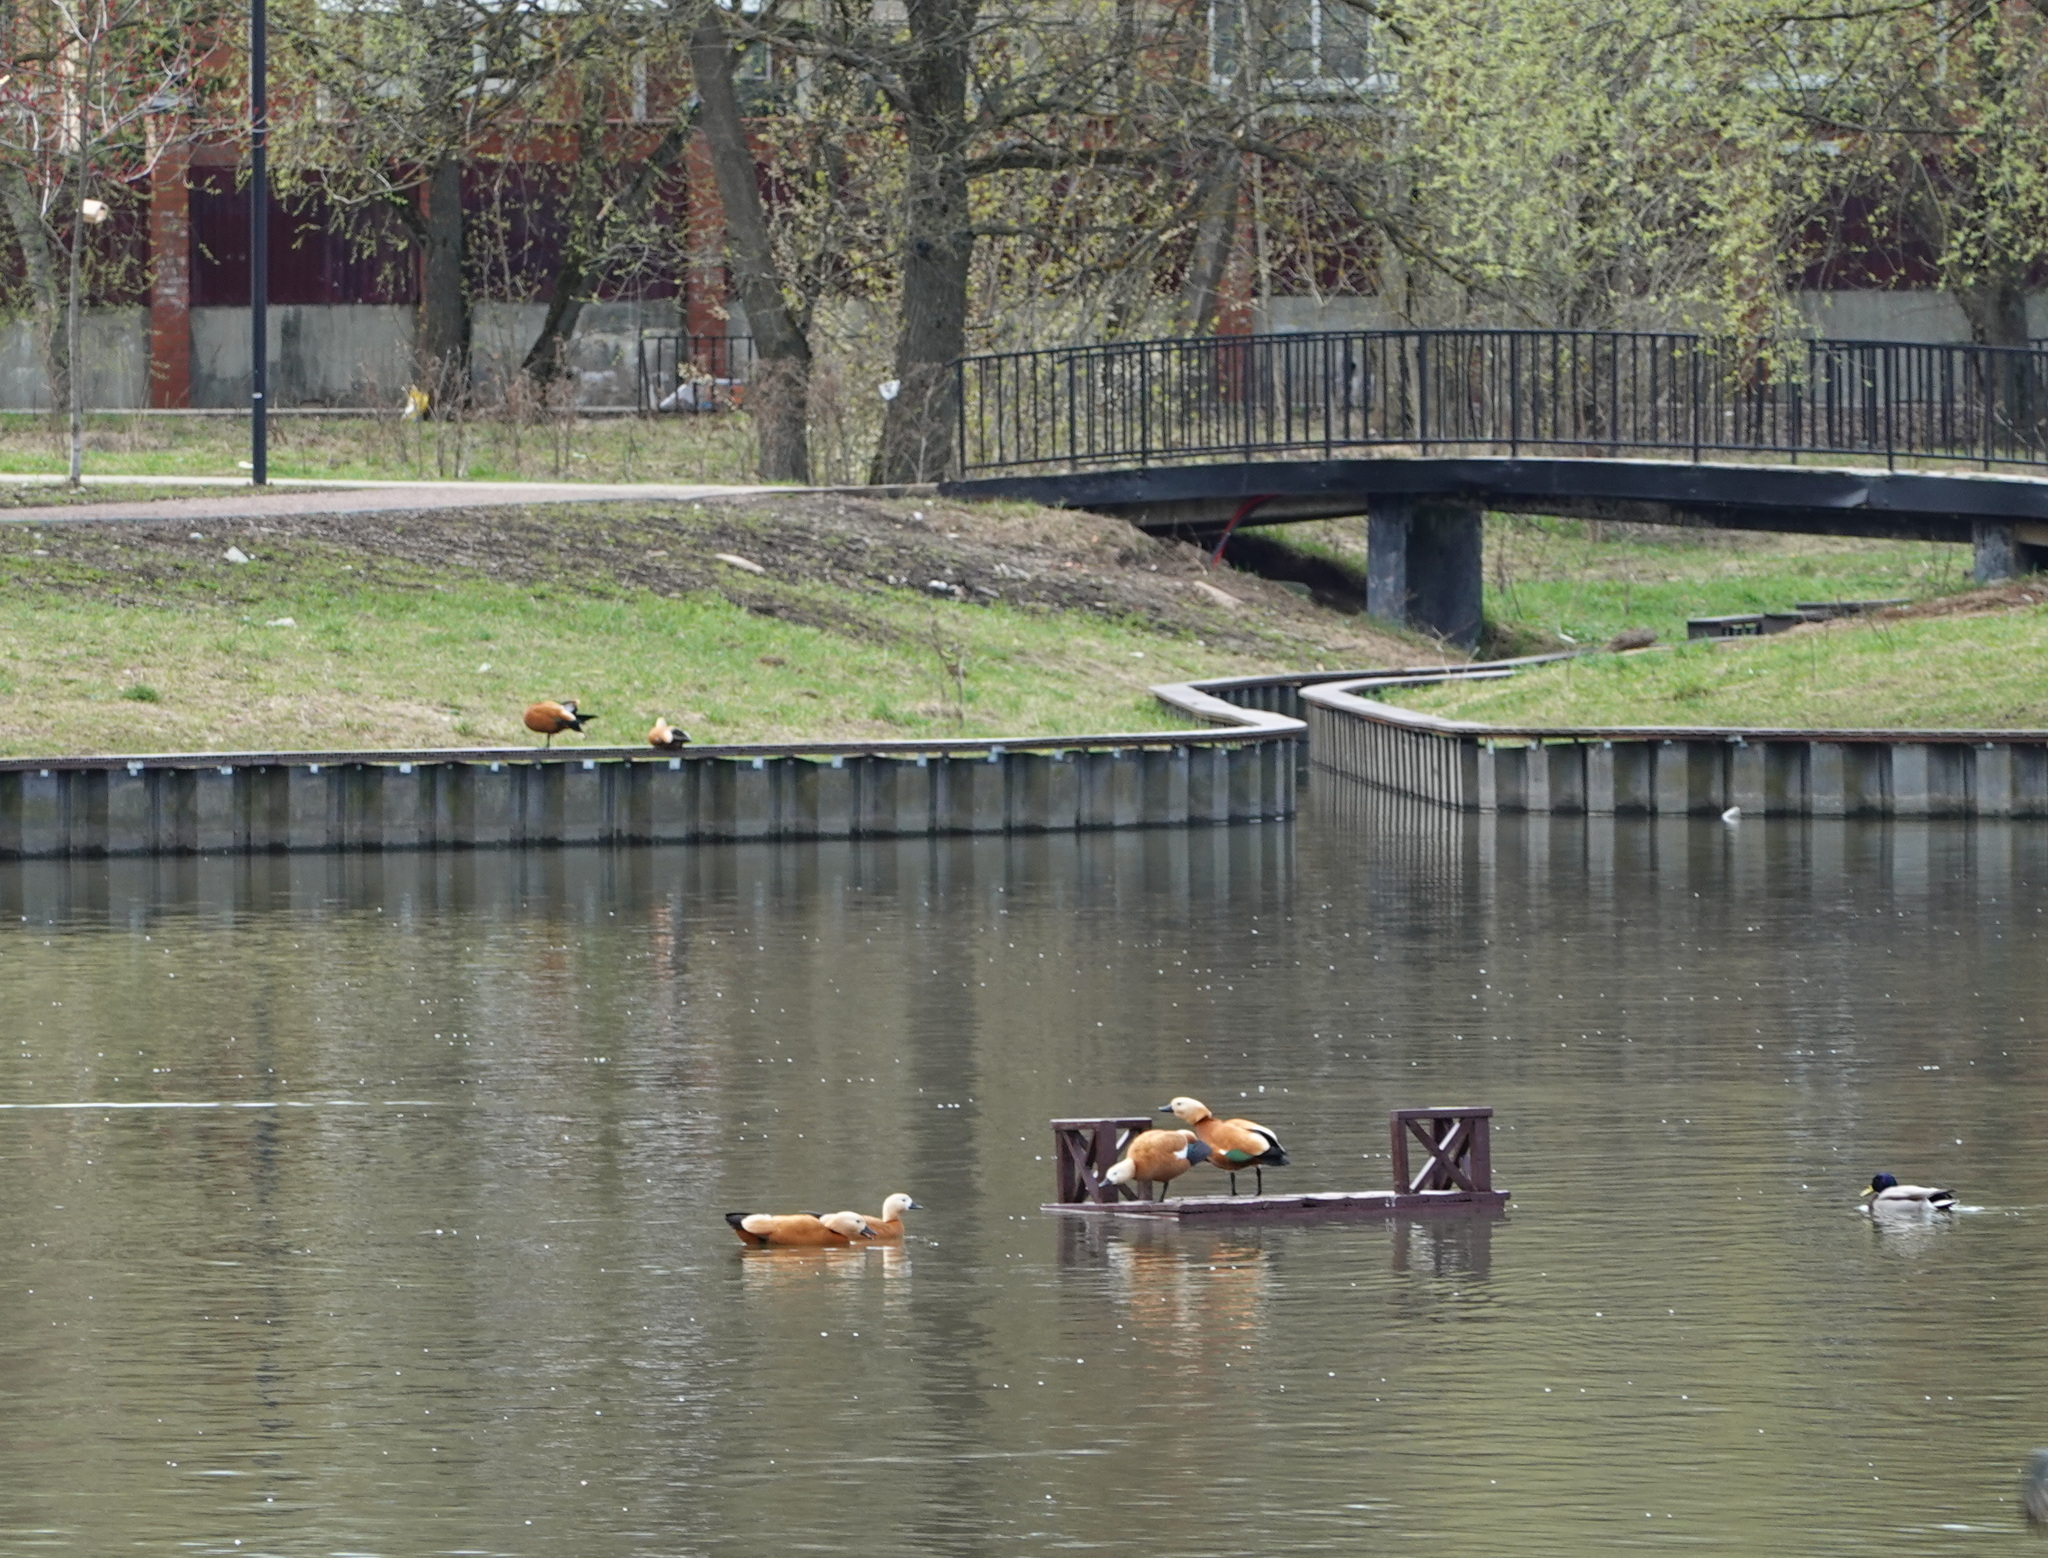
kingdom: Animalia
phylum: Chordata
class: Aves
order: Anseriformes
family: Anatidae
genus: Tadorna
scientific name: Tadorna ferruginea
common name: Ruddy shelduck
